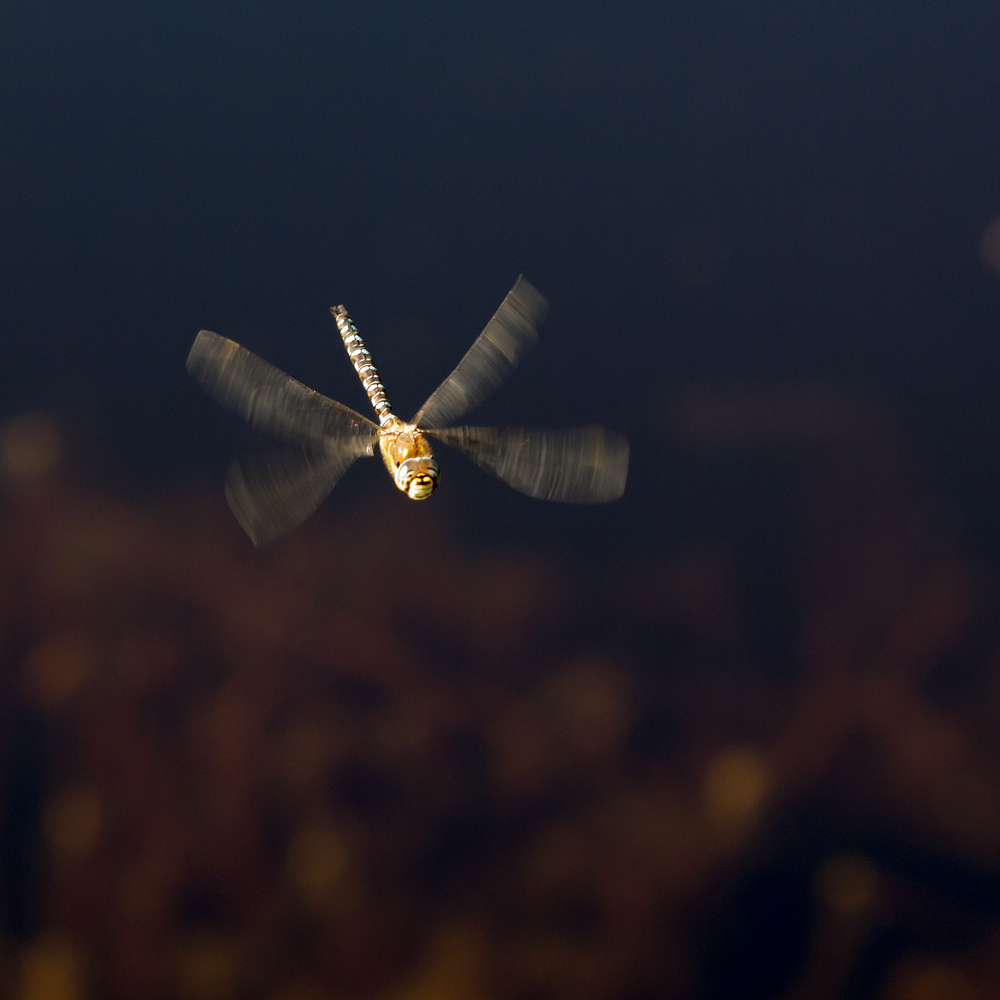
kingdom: Animalia
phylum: Arthropoda
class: Insecta
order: Odonata
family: Aeshnidae
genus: Aeshna
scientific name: Aeshna mixta
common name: Migrant hawker
